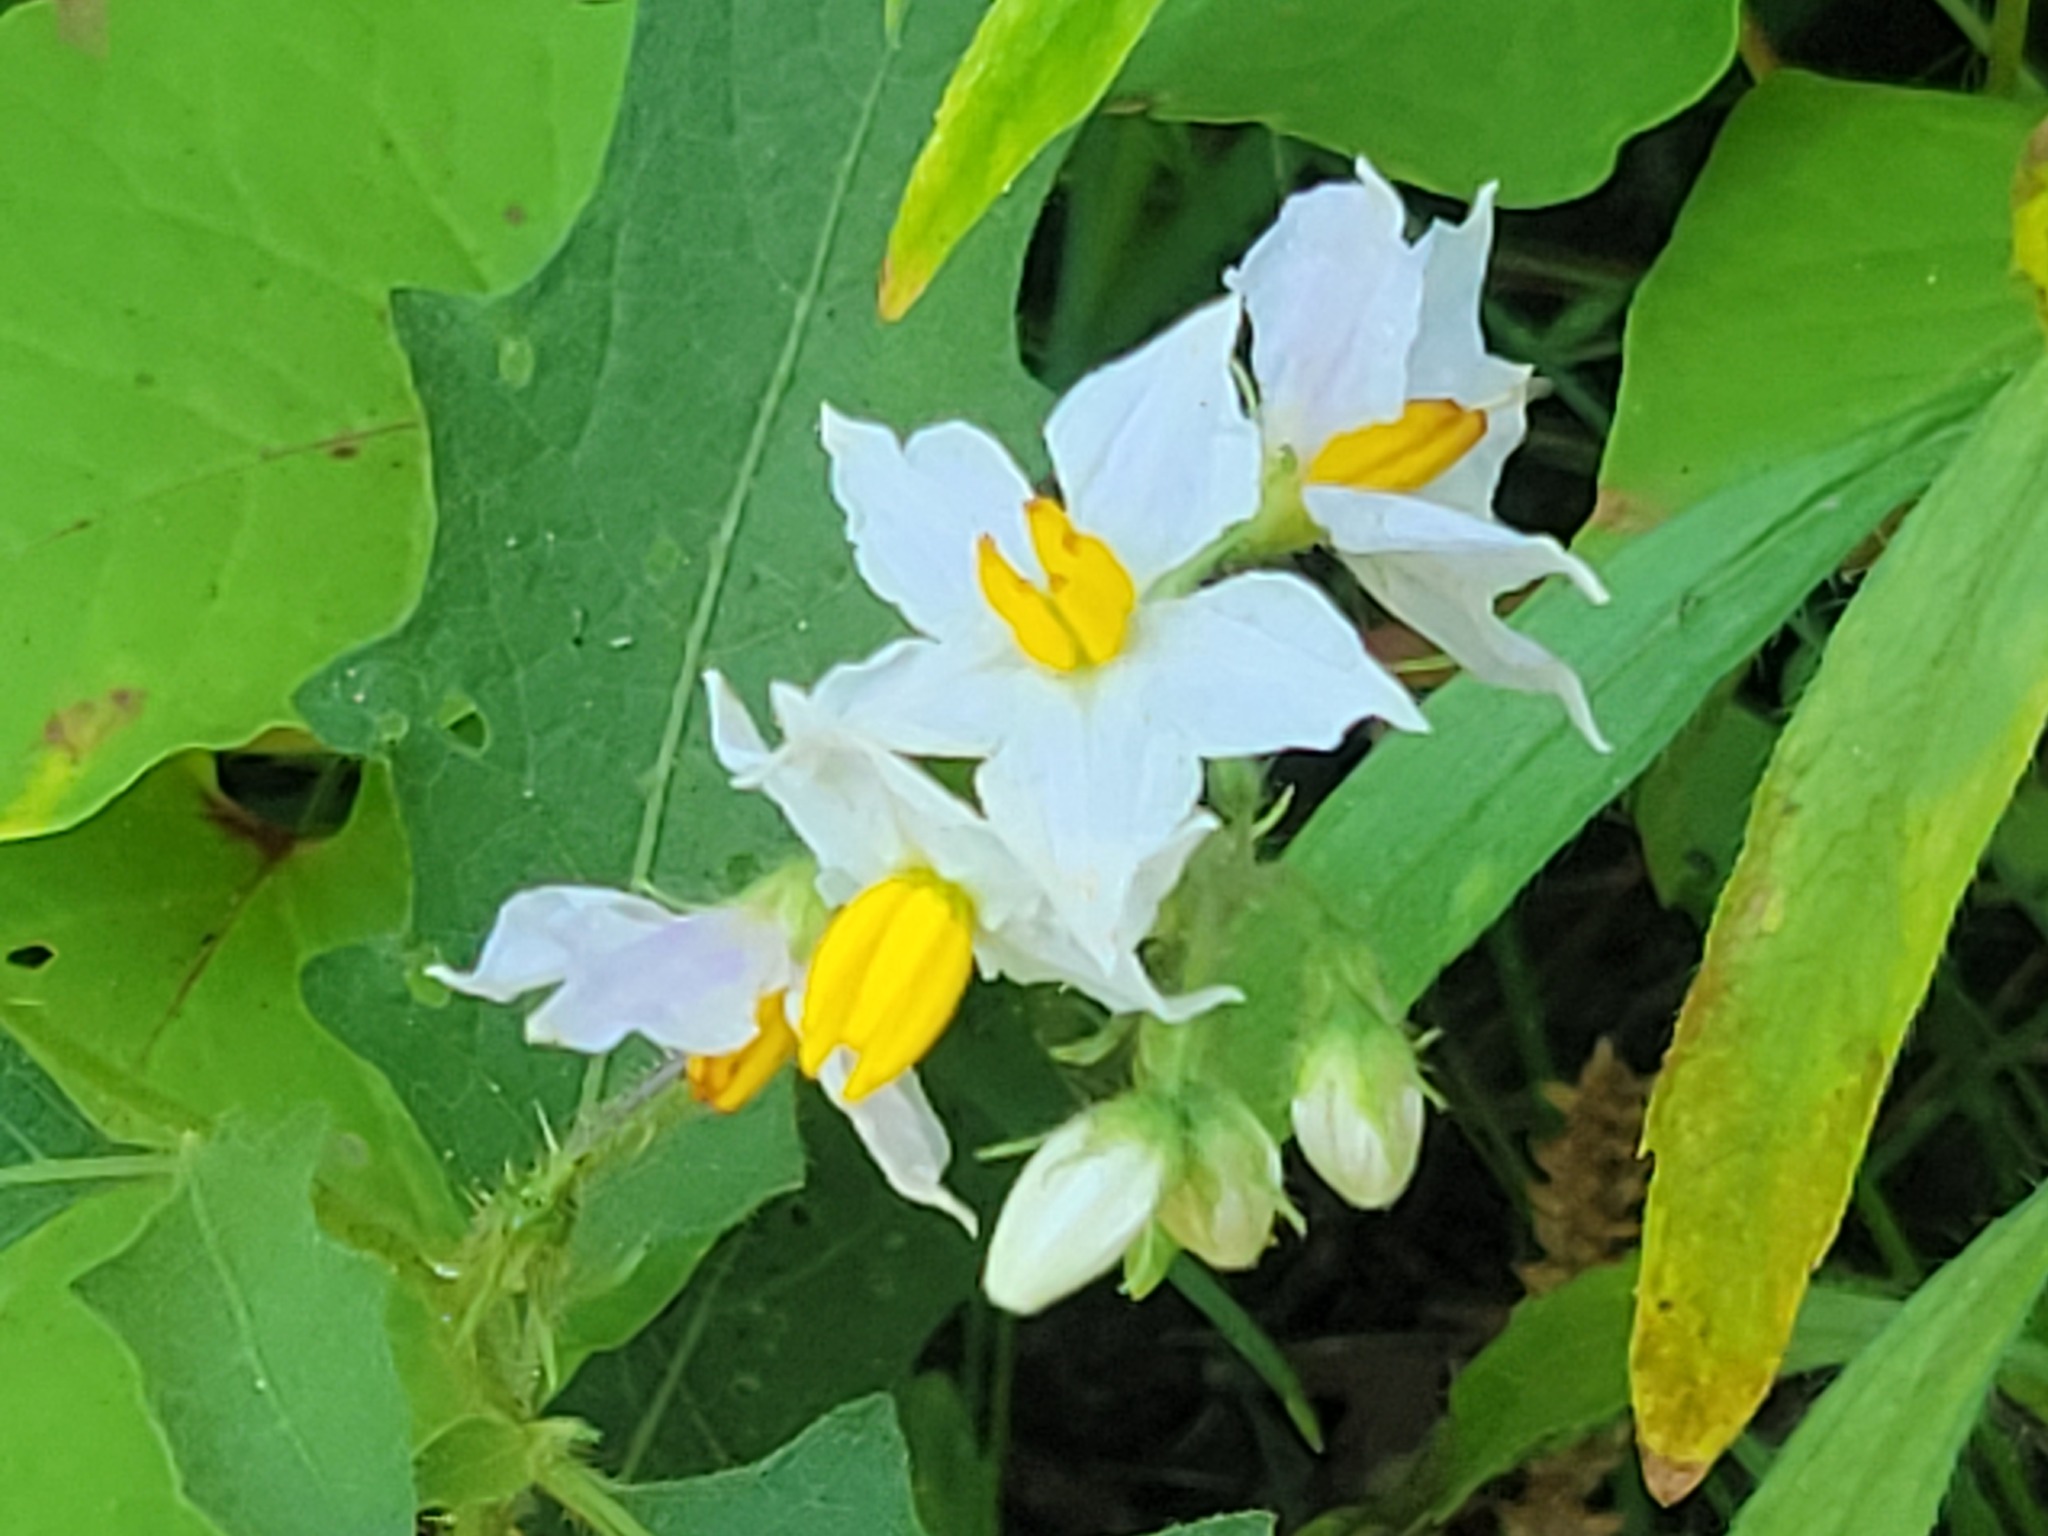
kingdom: Plantae
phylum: Tracheophyta
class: Magnoliopsida
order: Solanales
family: Solanaceae
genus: Solanum
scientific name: Solanum carolinense
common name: Horse-nettle
